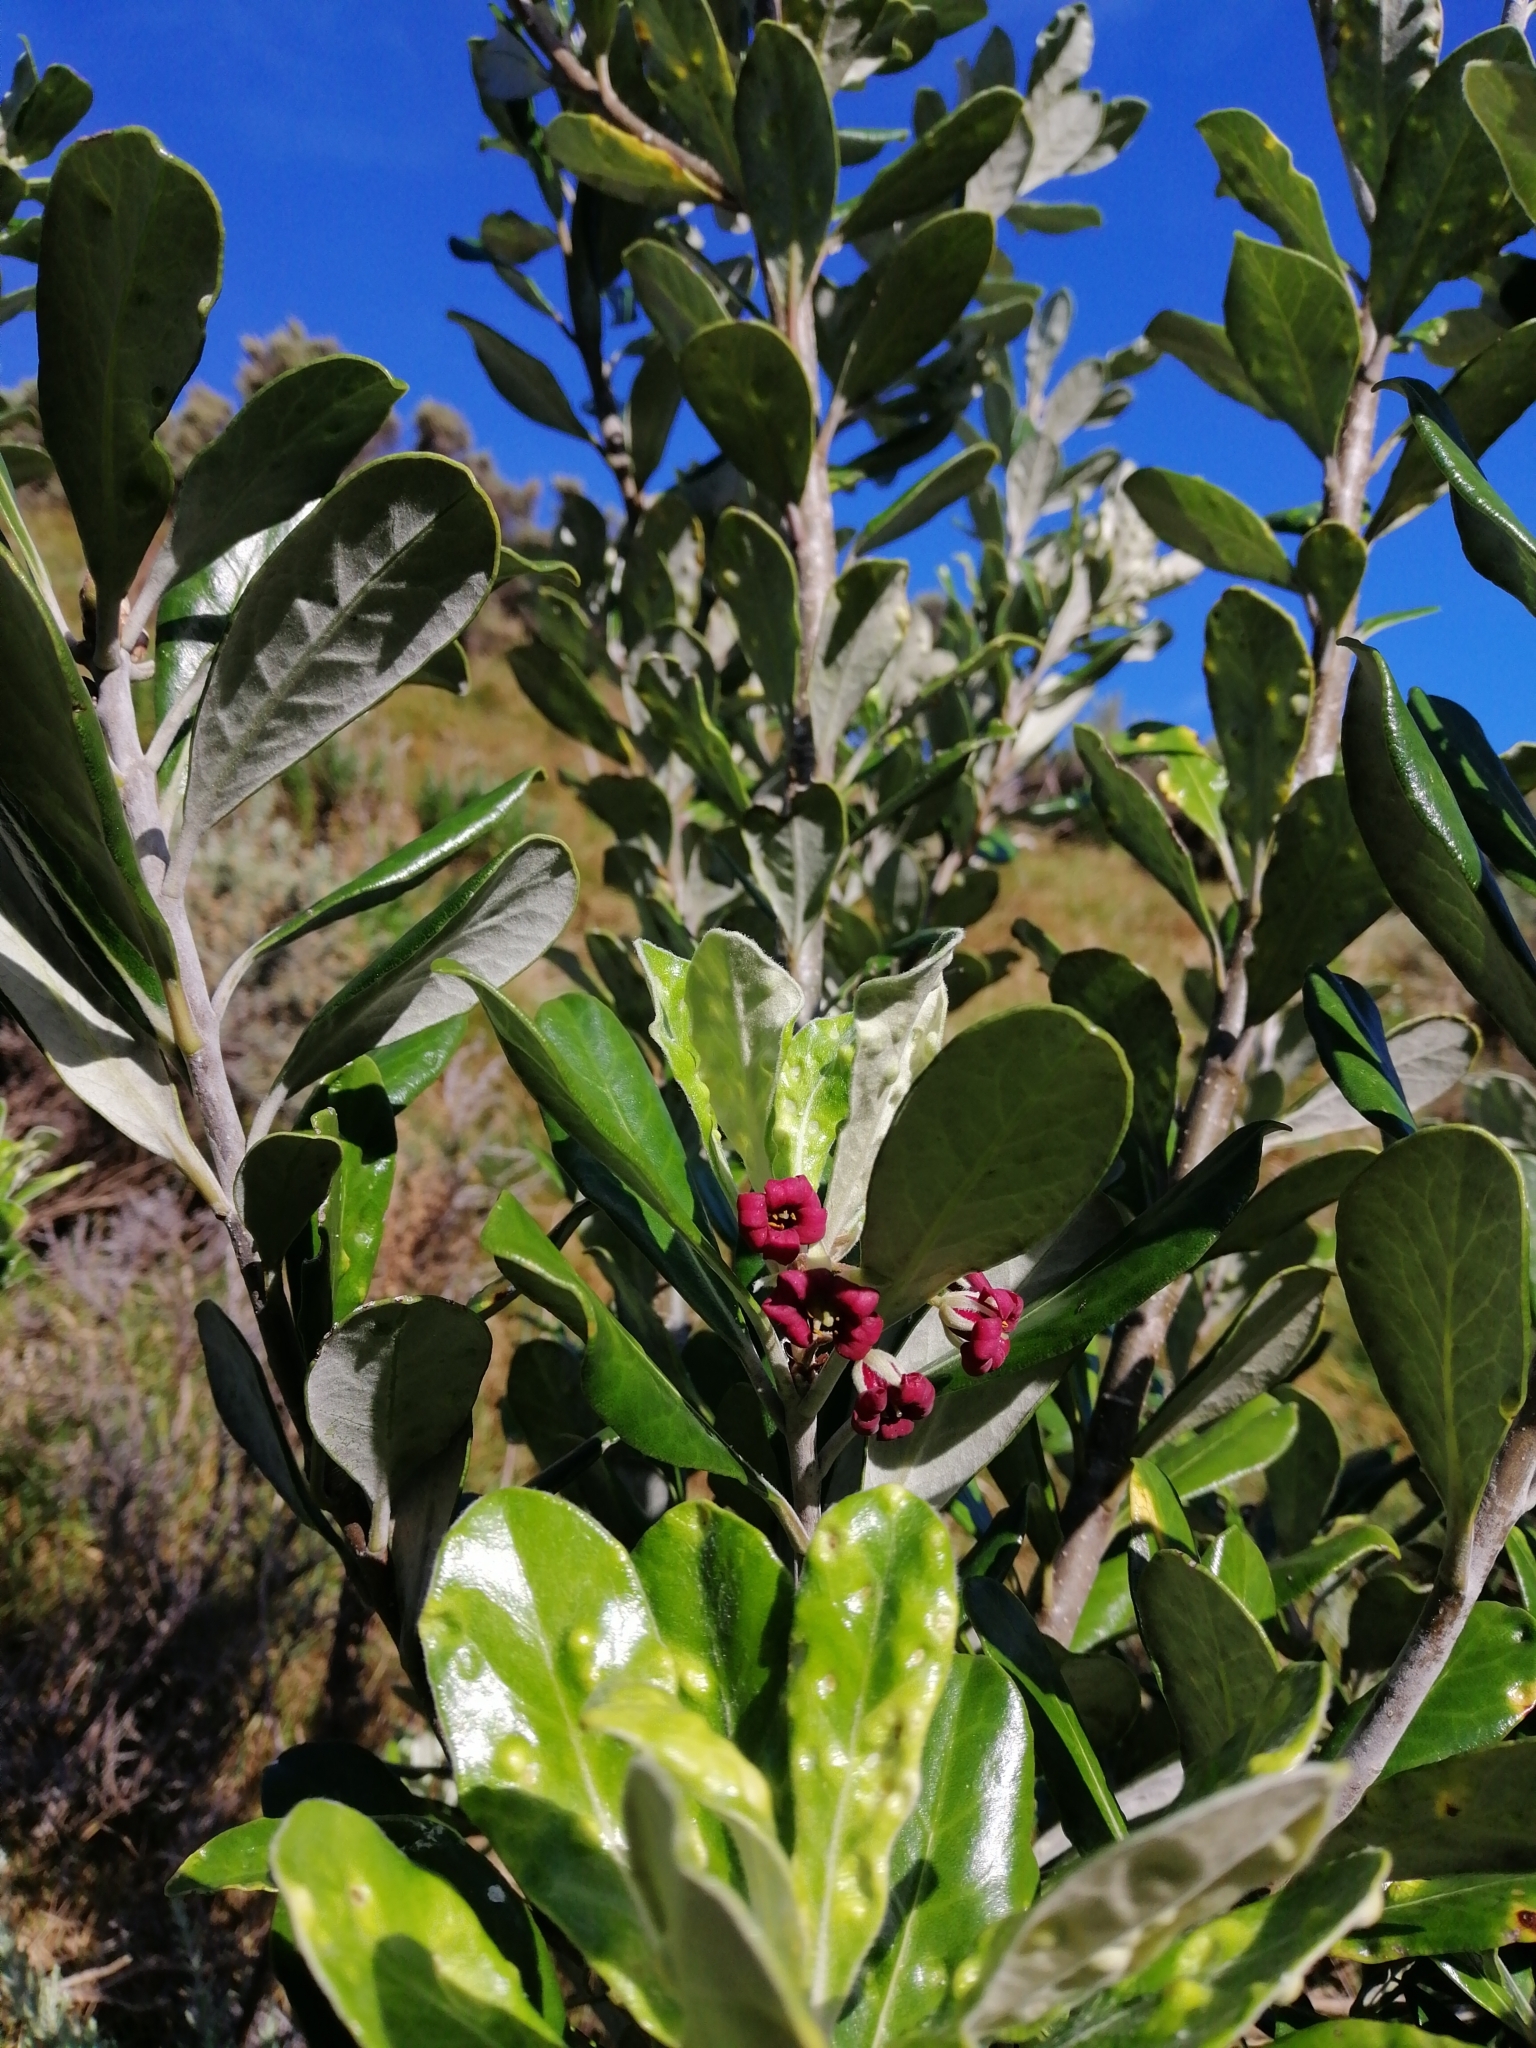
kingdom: Plantae
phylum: Tracheophyta
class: Magnoliopsida
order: Apiales
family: Pittosporaceae
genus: Pittosporum
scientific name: Pittosporum crassifolium
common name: Karo
